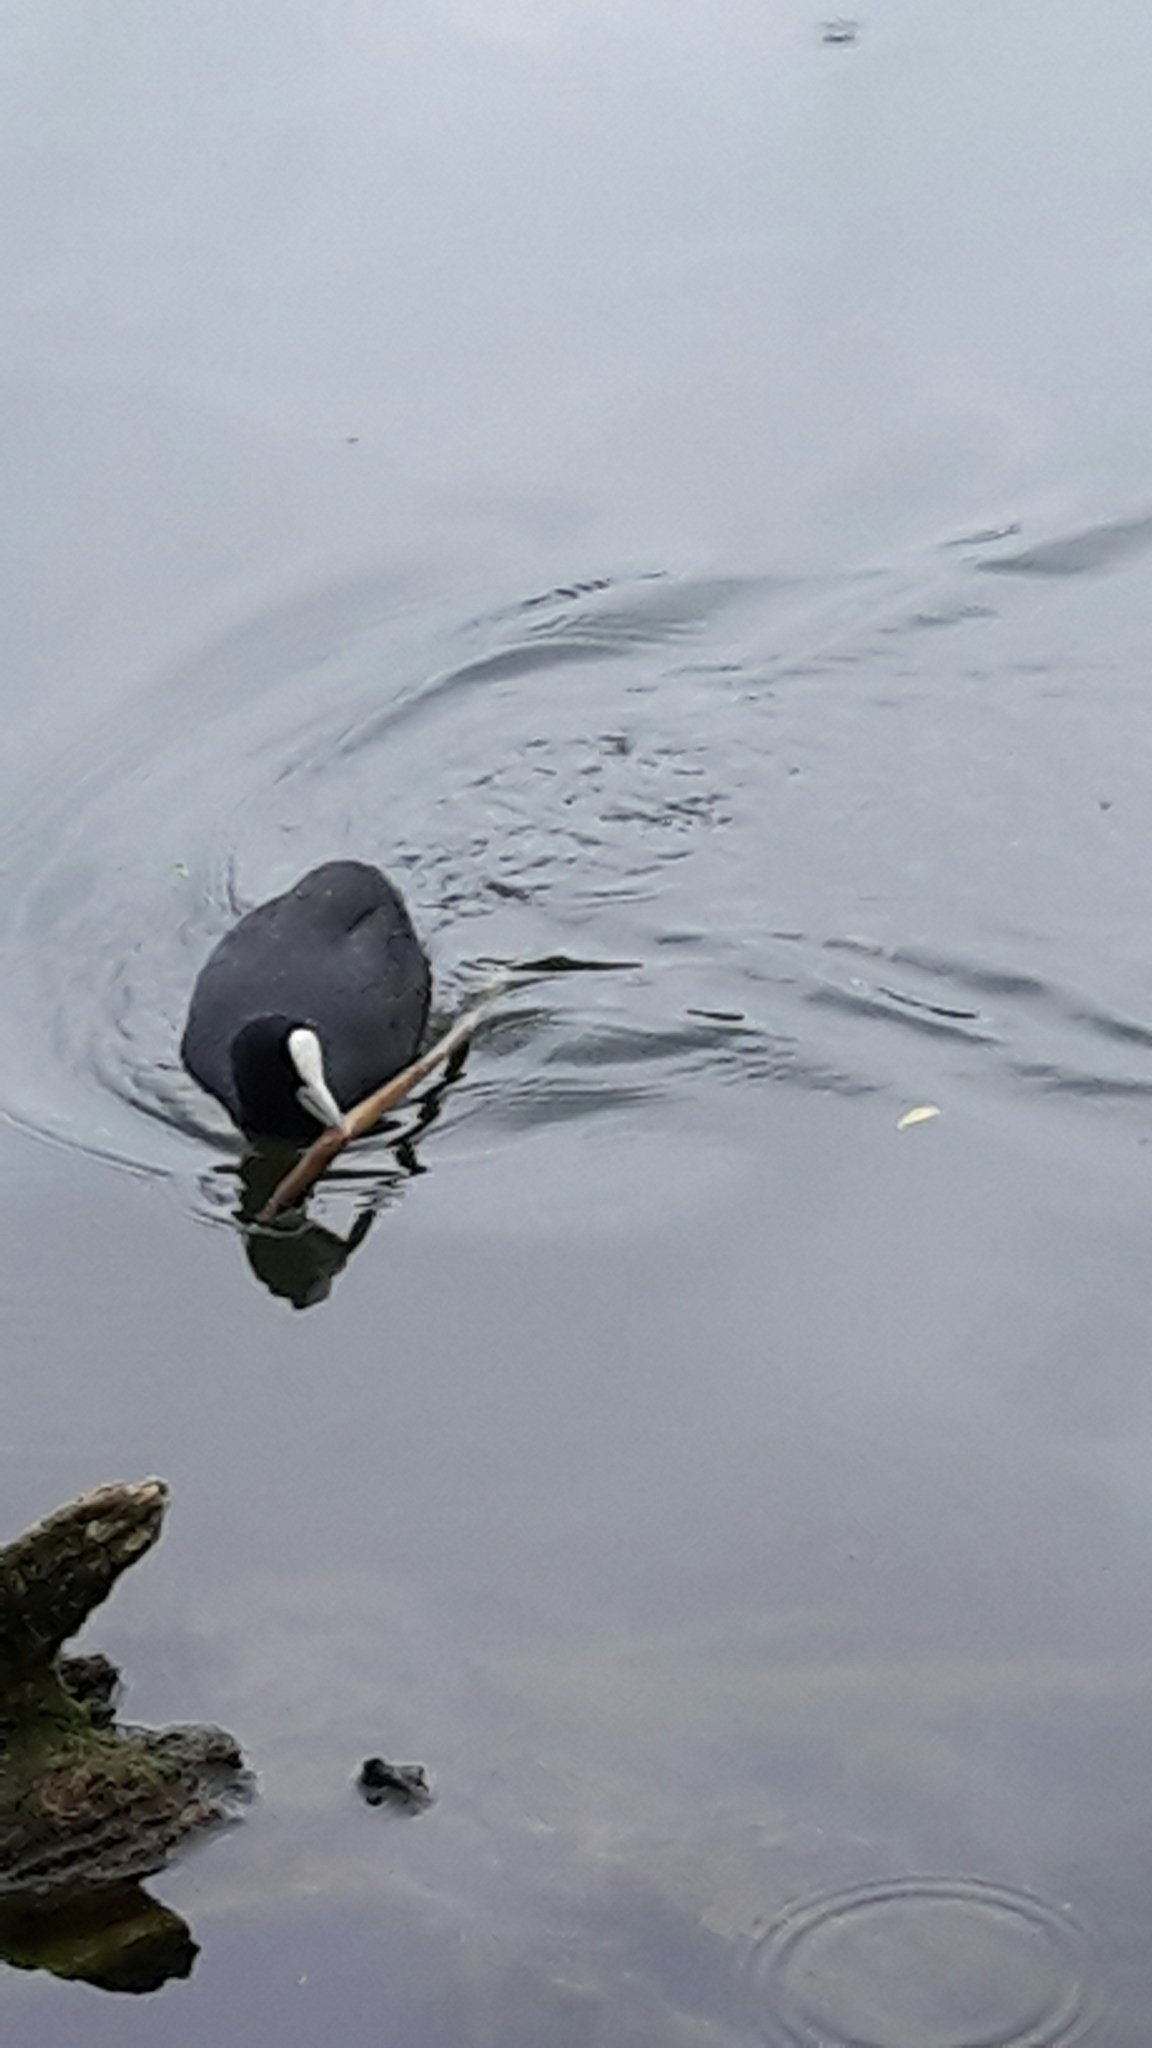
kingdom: Animalia
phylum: Chordata
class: Aves
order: Gruiformes
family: Rallidae
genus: Fulica
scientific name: Fulica atra
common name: Eurasian coot
